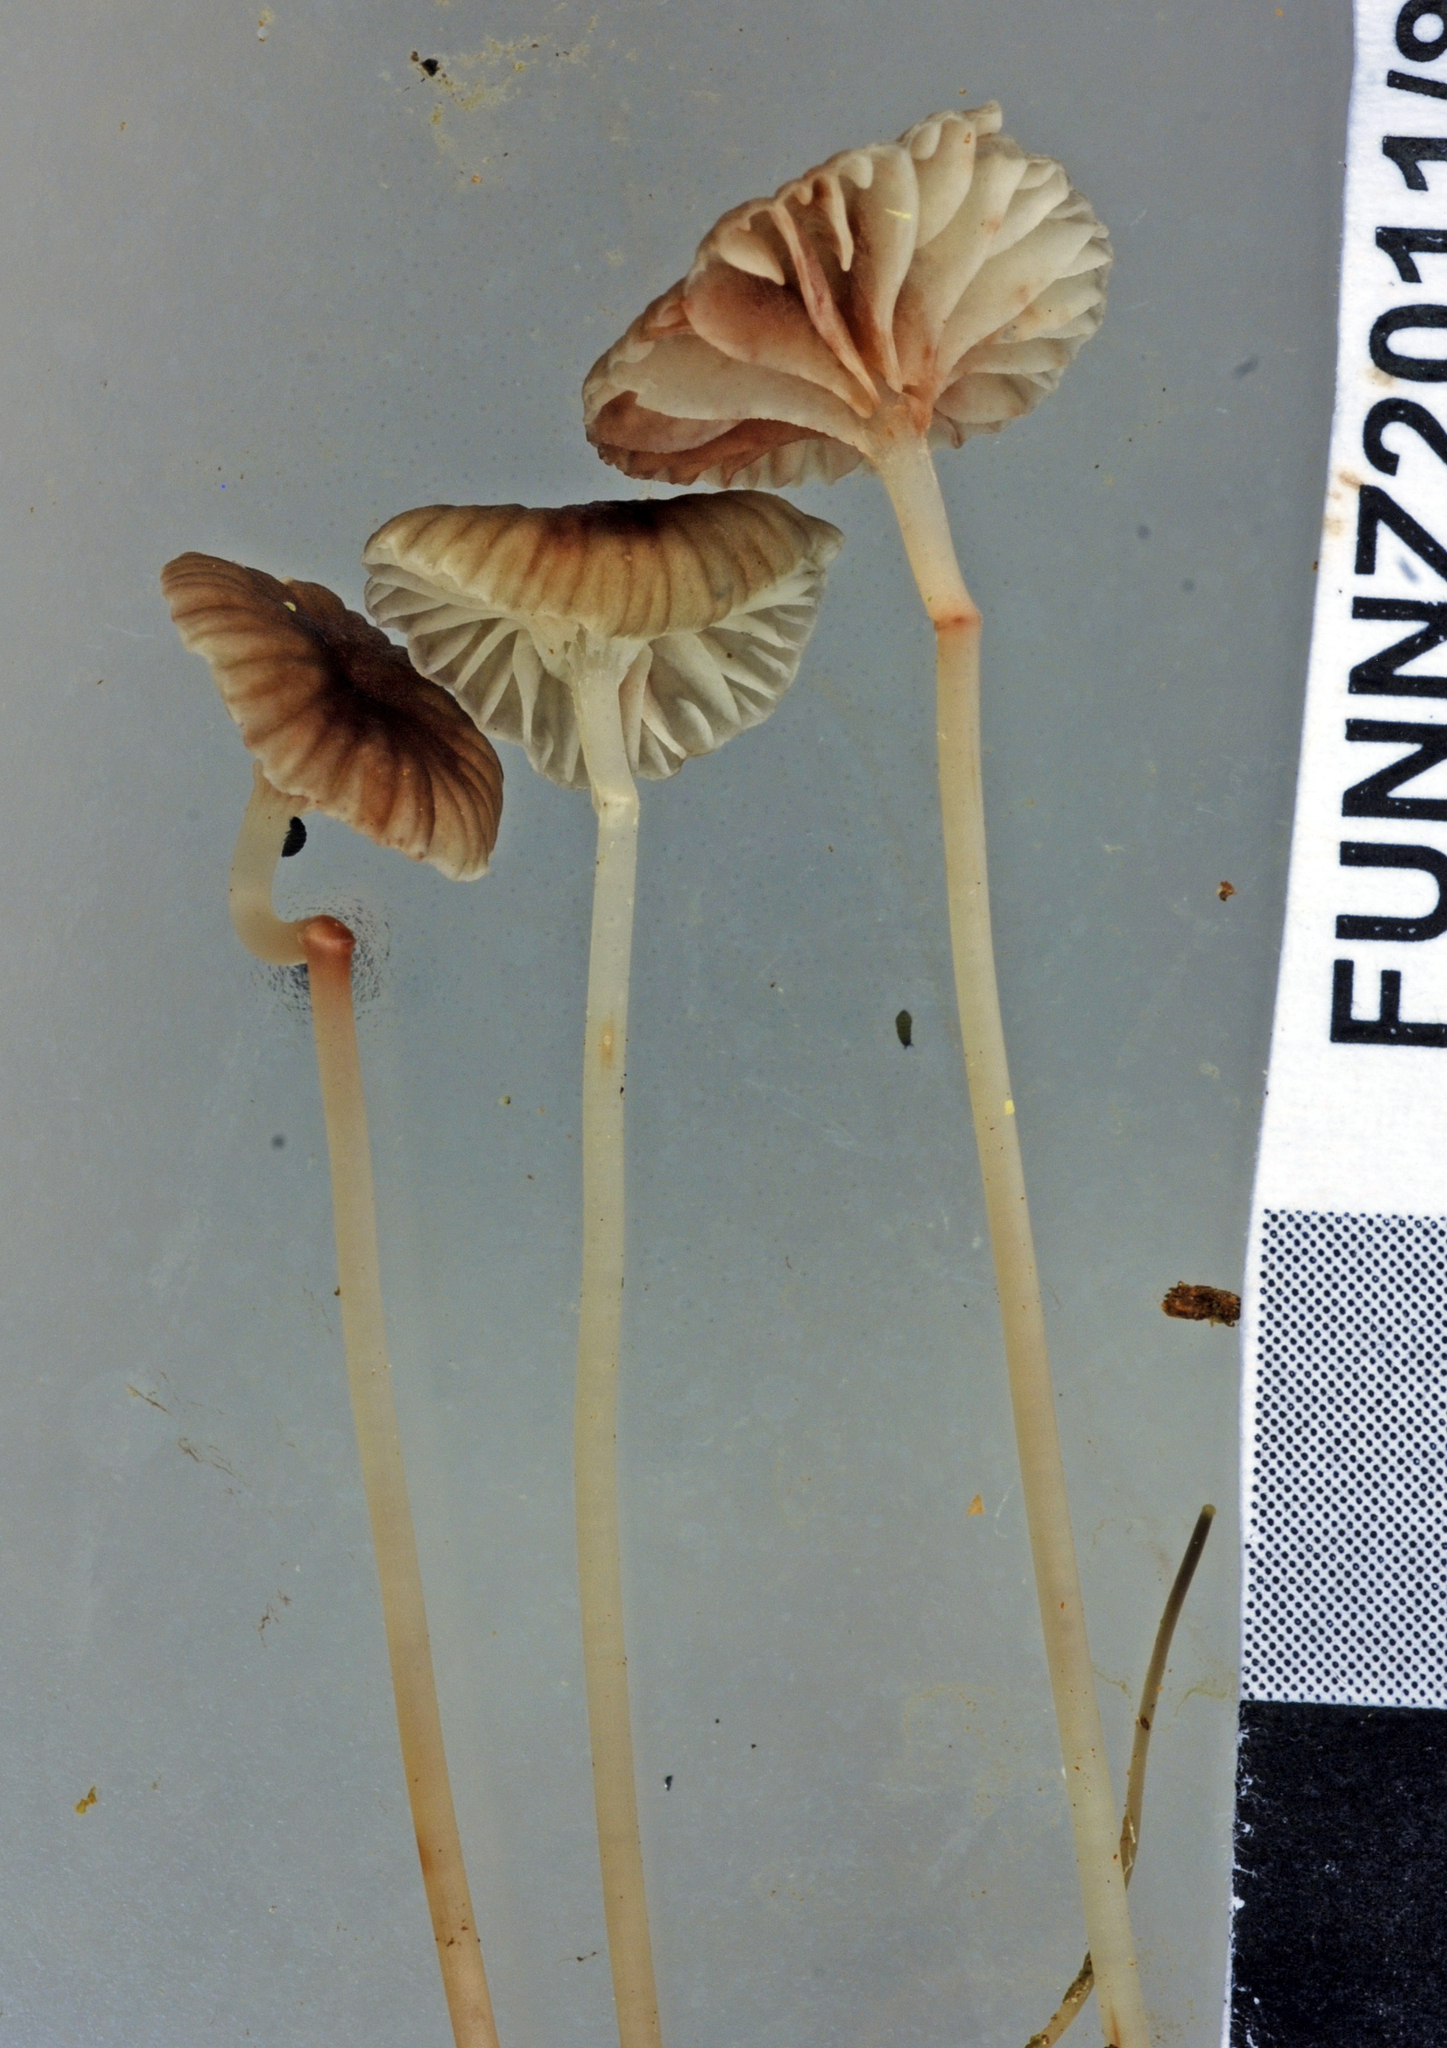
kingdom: Fungi
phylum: Basidiomycota
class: Agaricomycetes
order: Agaricales
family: Mycenaceae
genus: Mycena
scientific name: Mycena helminthobasis
